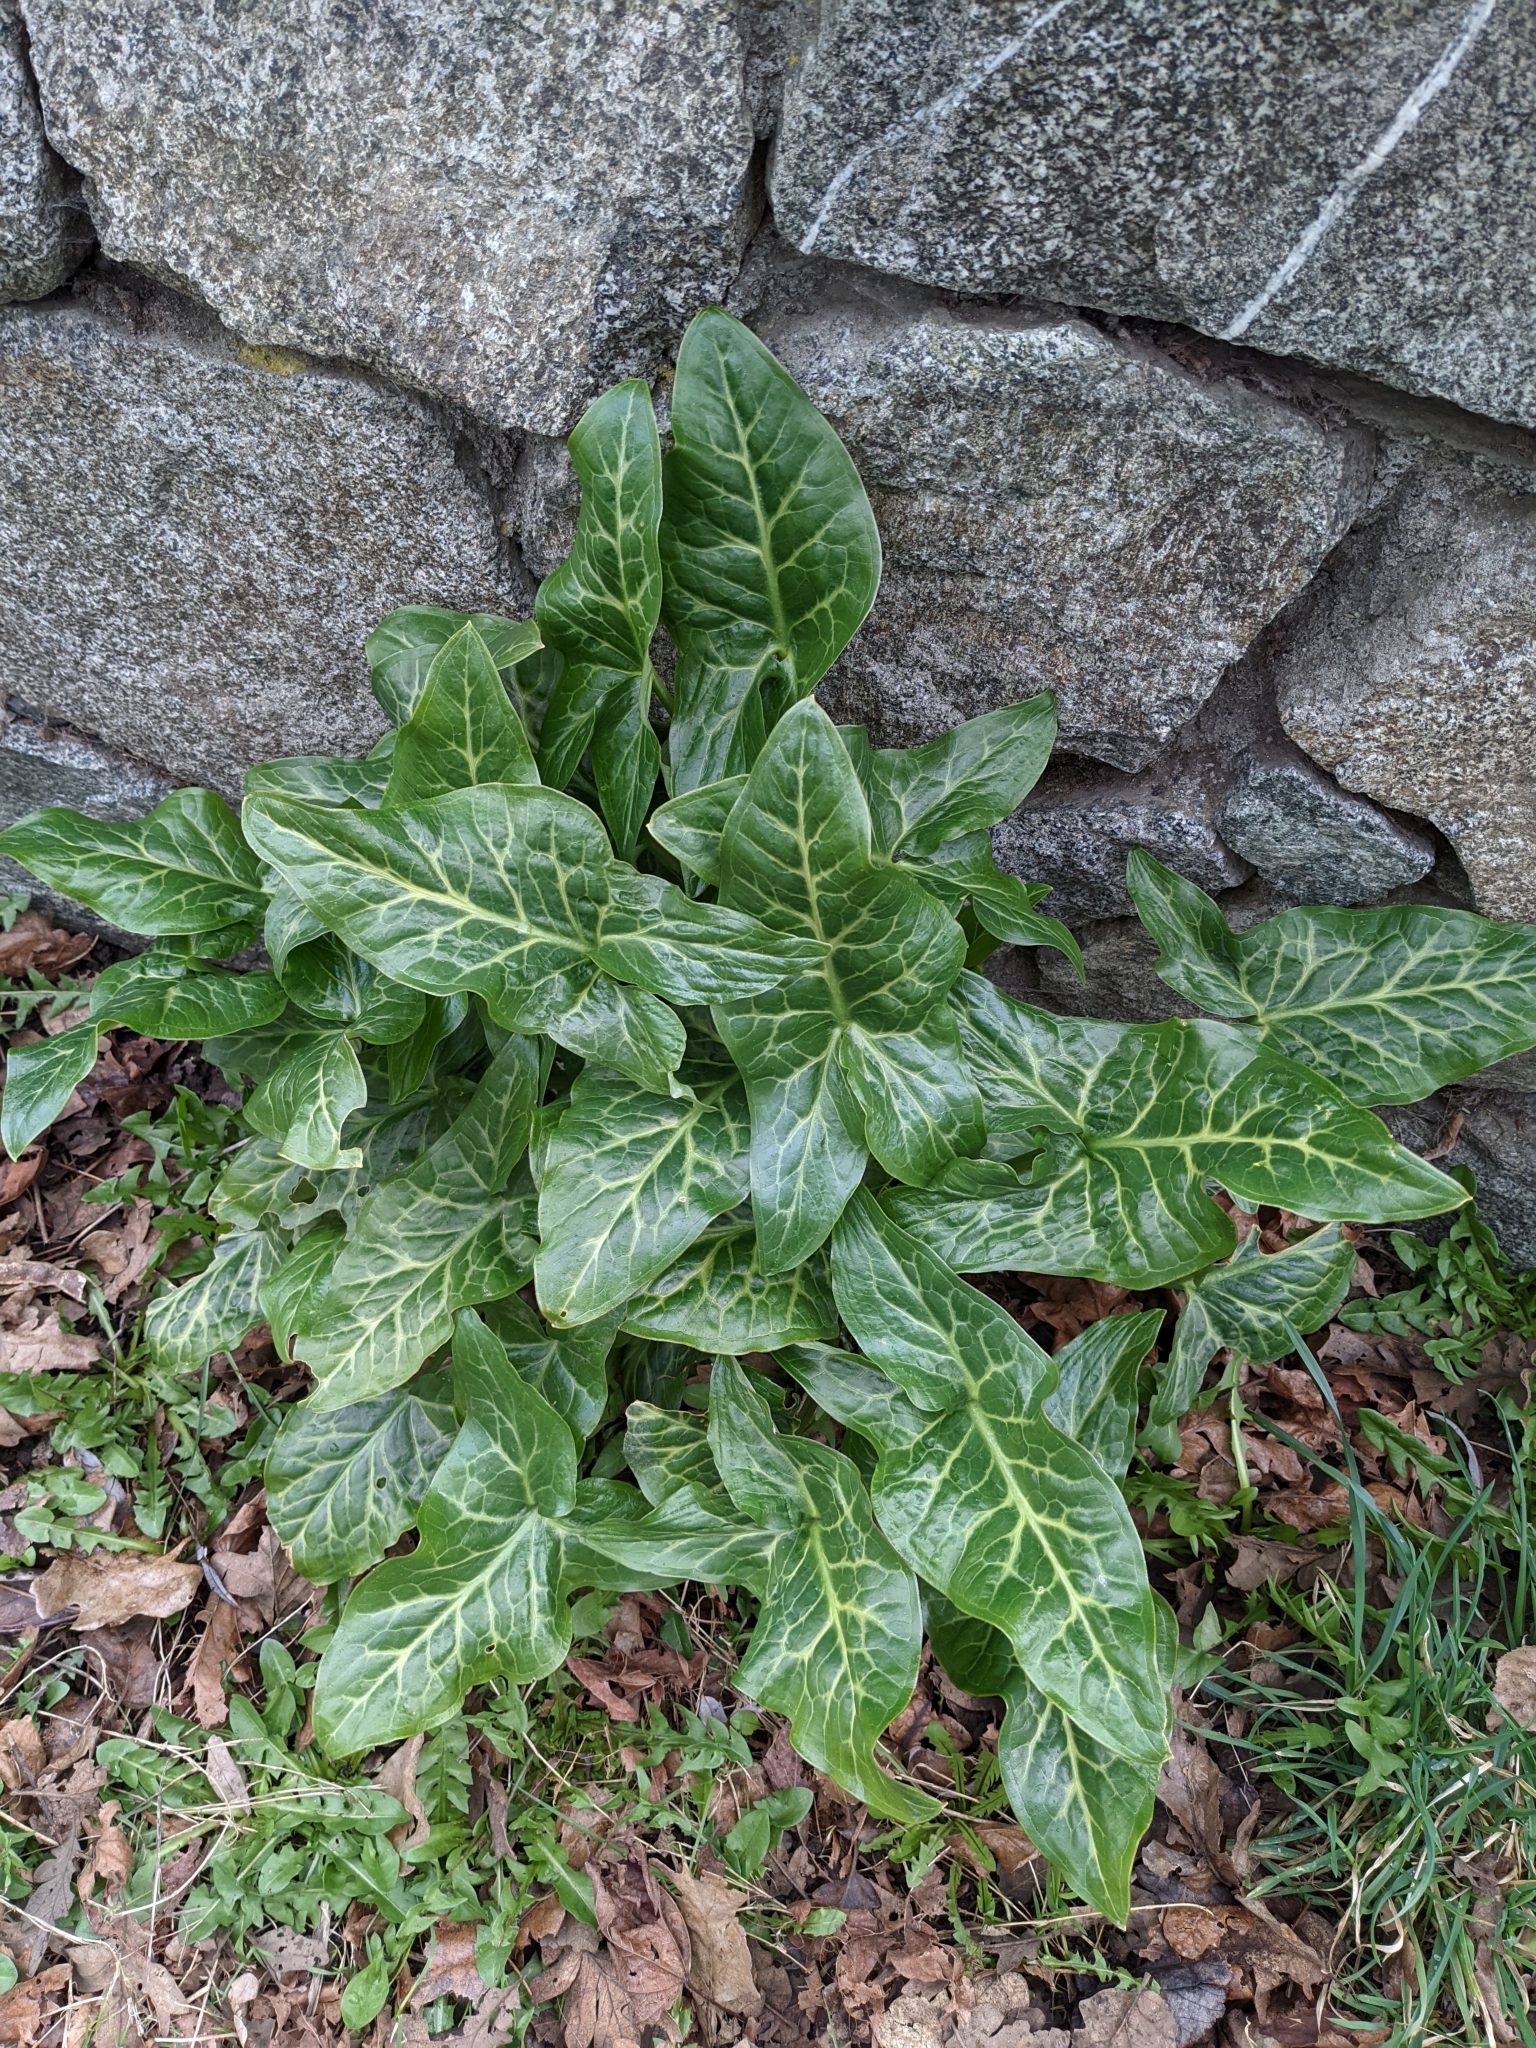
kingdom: Plantae
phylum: Tracheophyta
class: Liliopsida
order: Alismatales
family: Araceae
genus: Arum
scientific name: Arum italicum
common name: Italian lords-and-ladies
